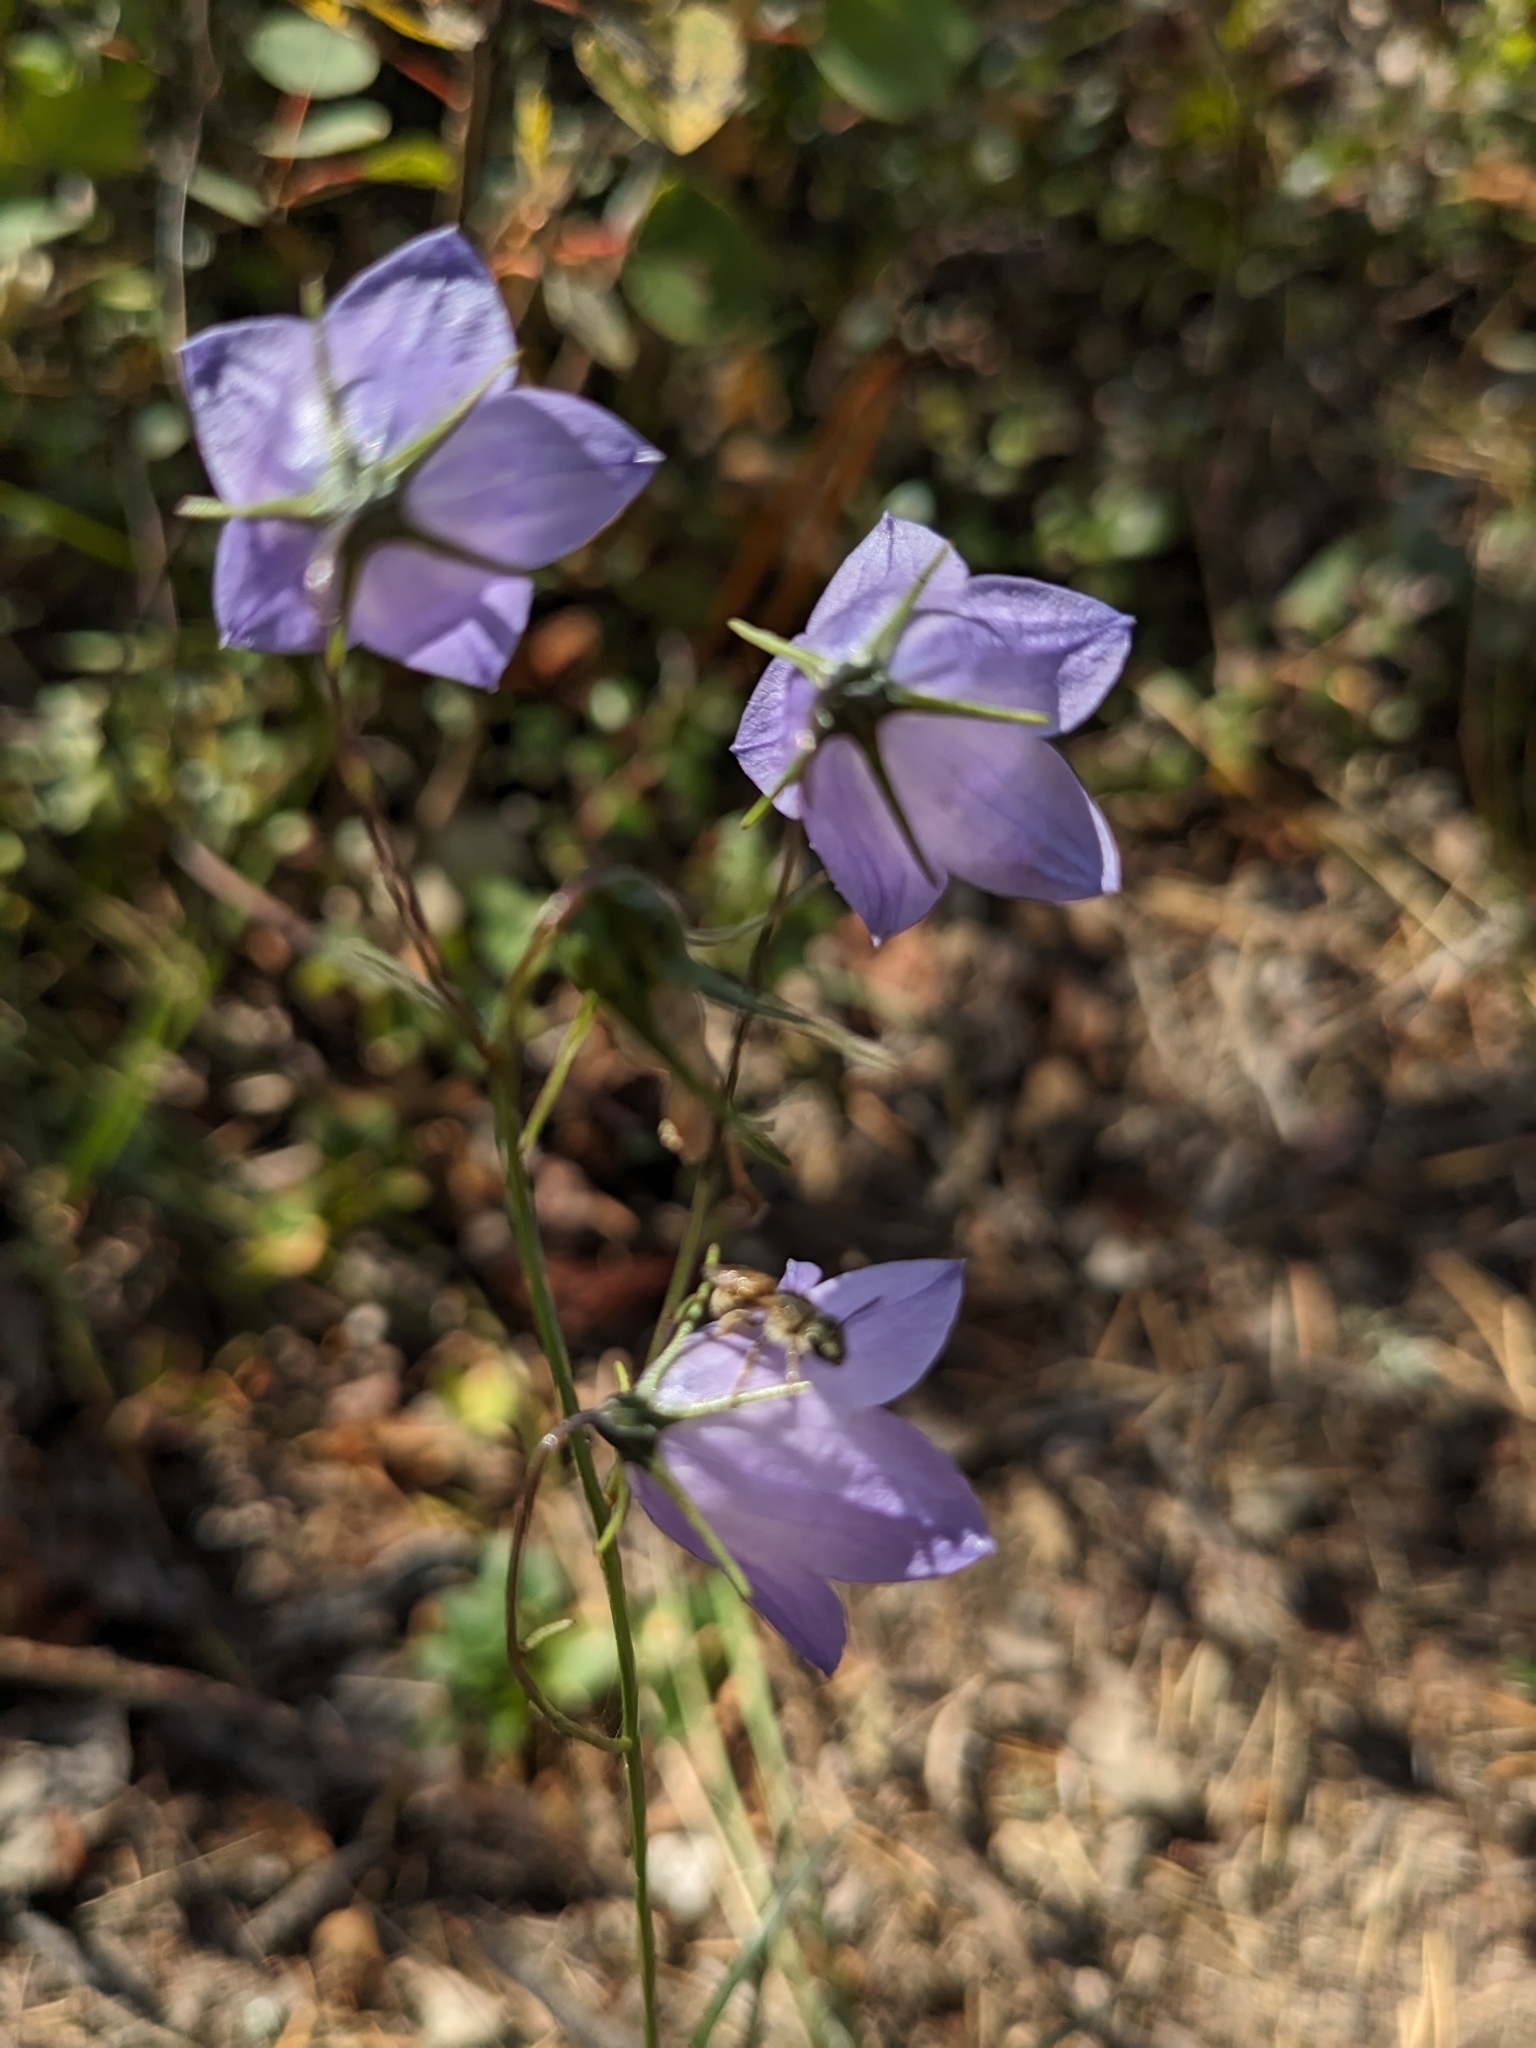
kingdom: Plantae
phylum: Tracheophyta
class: Magnoliopsida
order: Asterales
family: Campanulaceae
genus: Campanula
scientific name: Campanula alaskana
